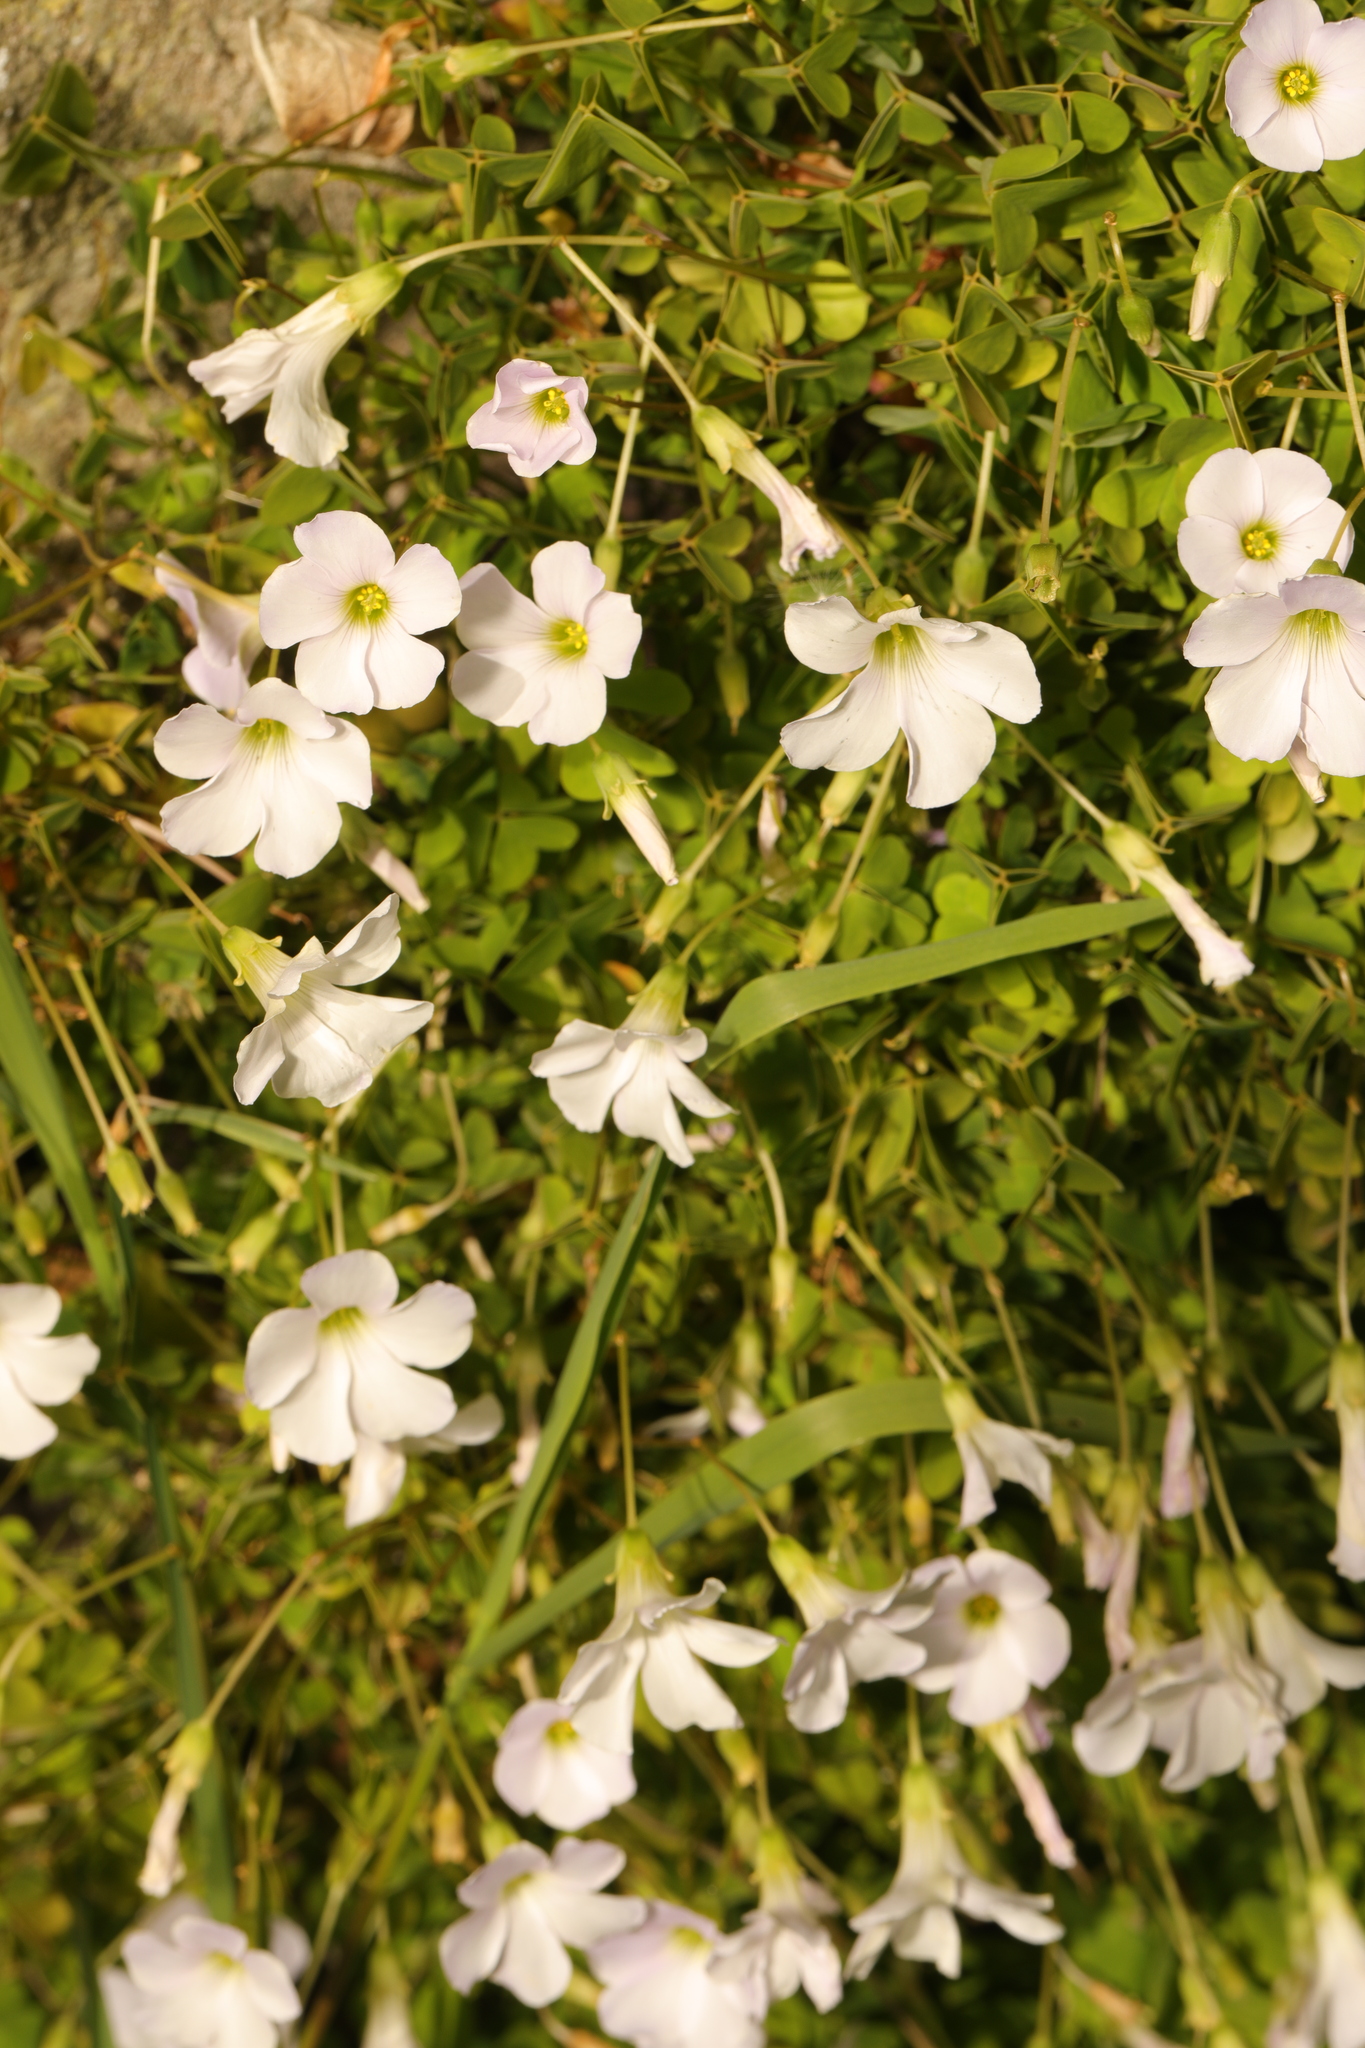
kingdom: Plantae
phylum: Tracheophyta
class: Magnoliopsida
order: Oxalidales
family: Oxalidaceae
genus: Oxalis
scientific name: Oxalis incarnata
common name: Pale pink-sorrel
